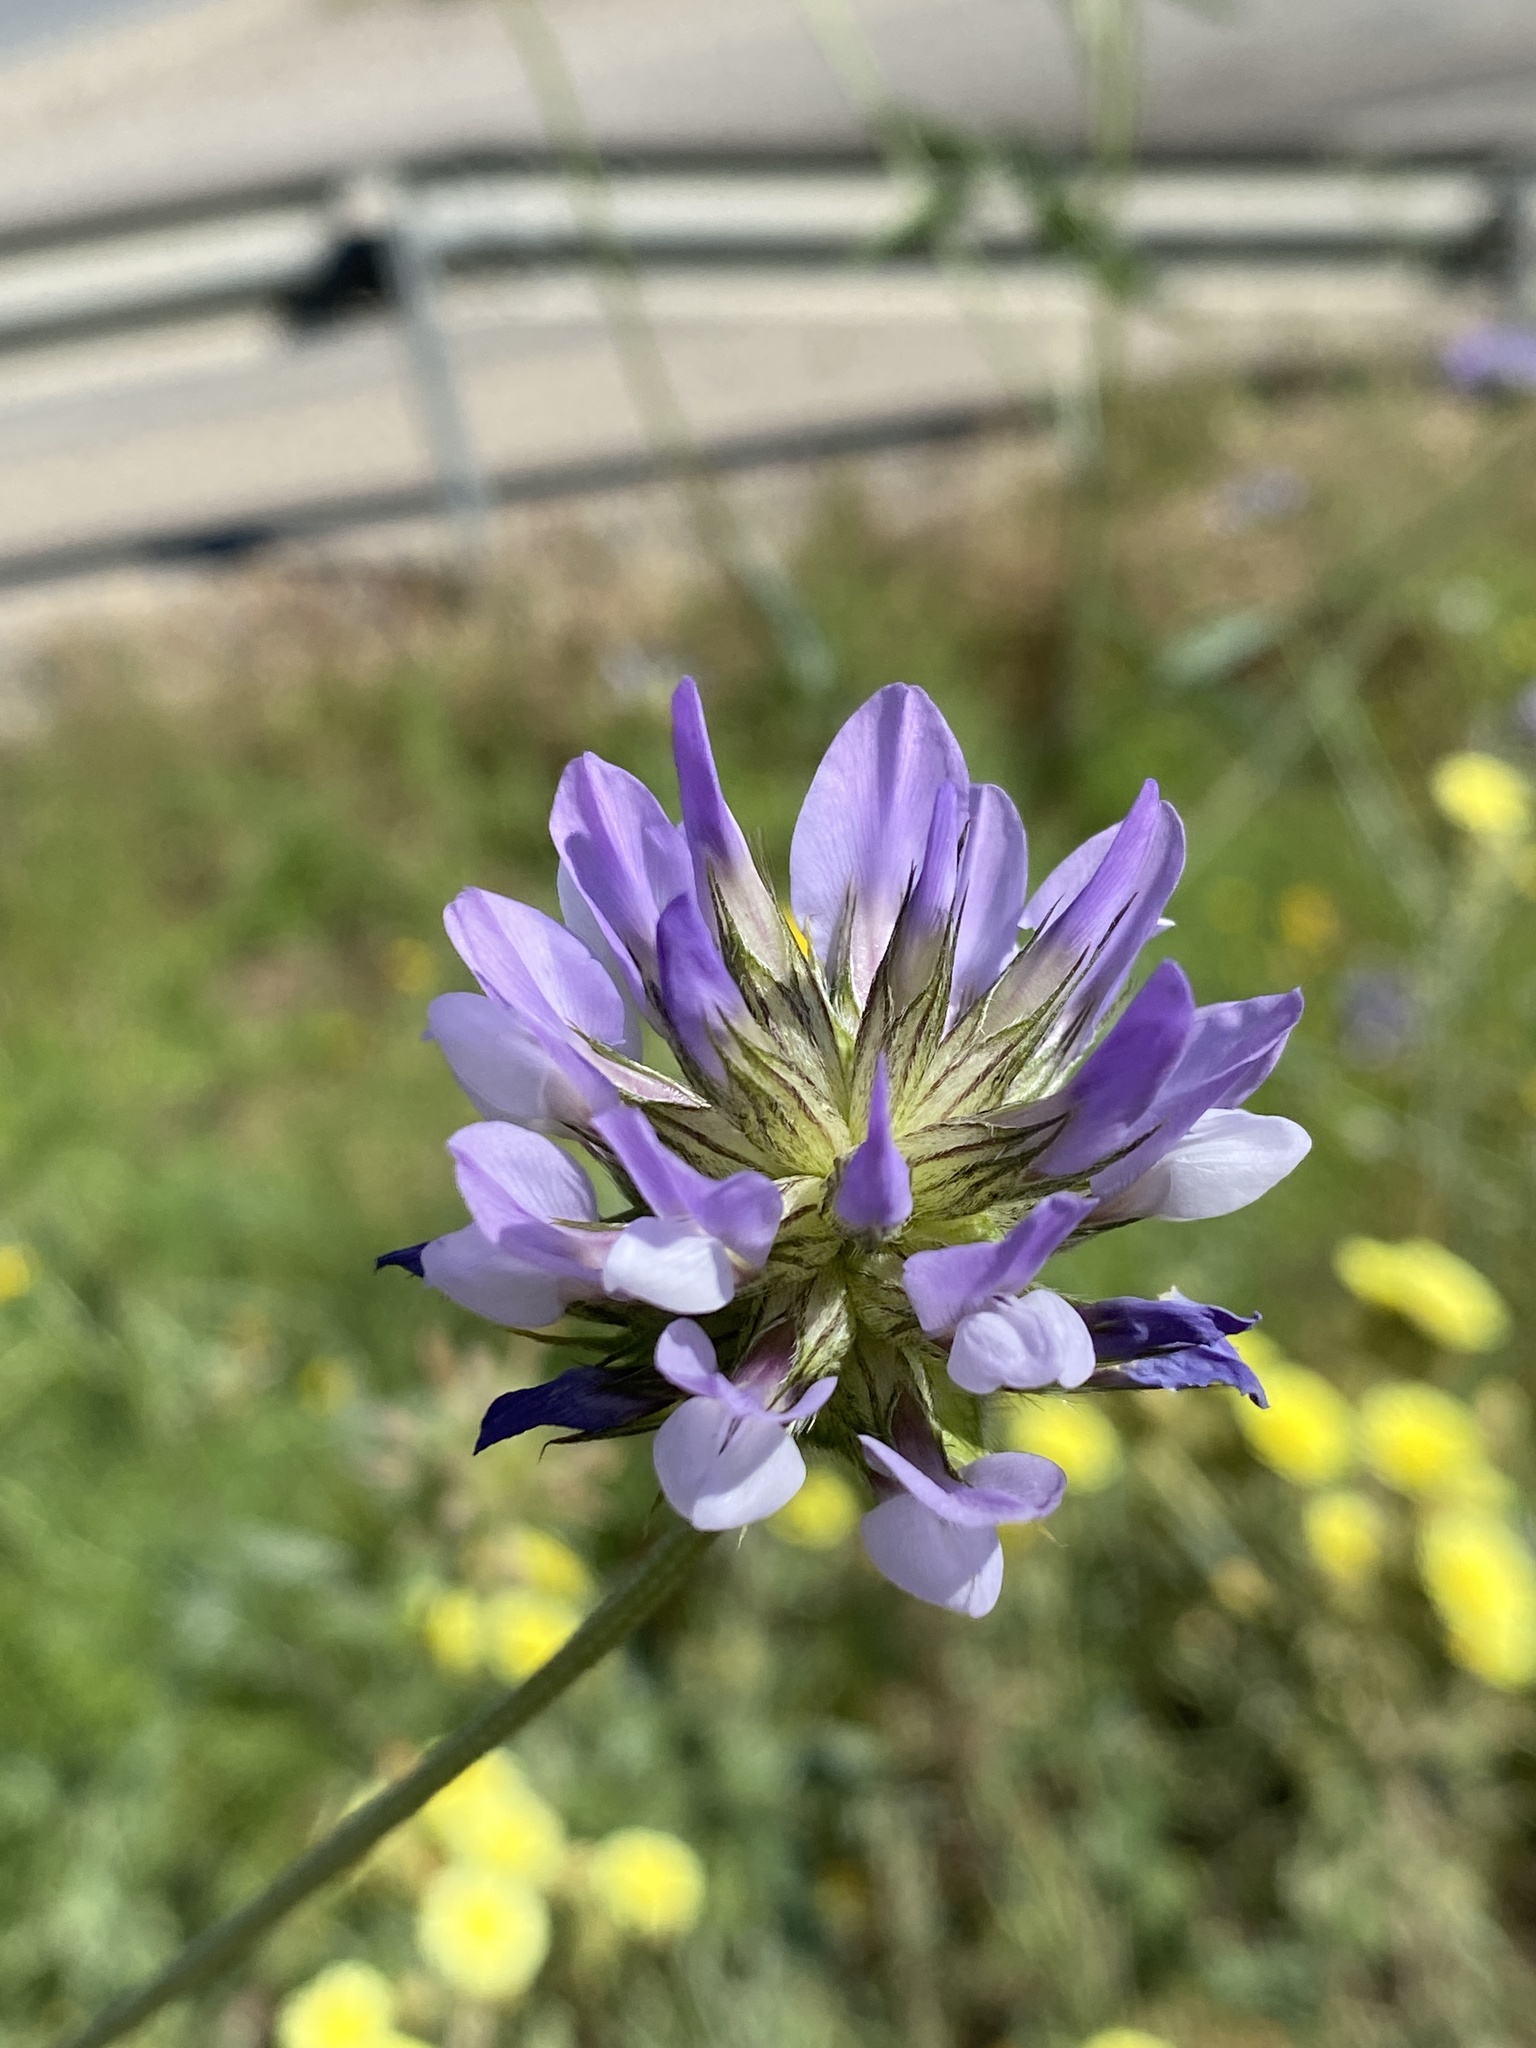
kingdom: Plantae
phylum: Tracheophyta
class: Magnoliopsida
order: Fabales
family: Fabaceae
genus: Bituminaria
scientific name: Bituminaria bituminosa
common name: Arabian pea
